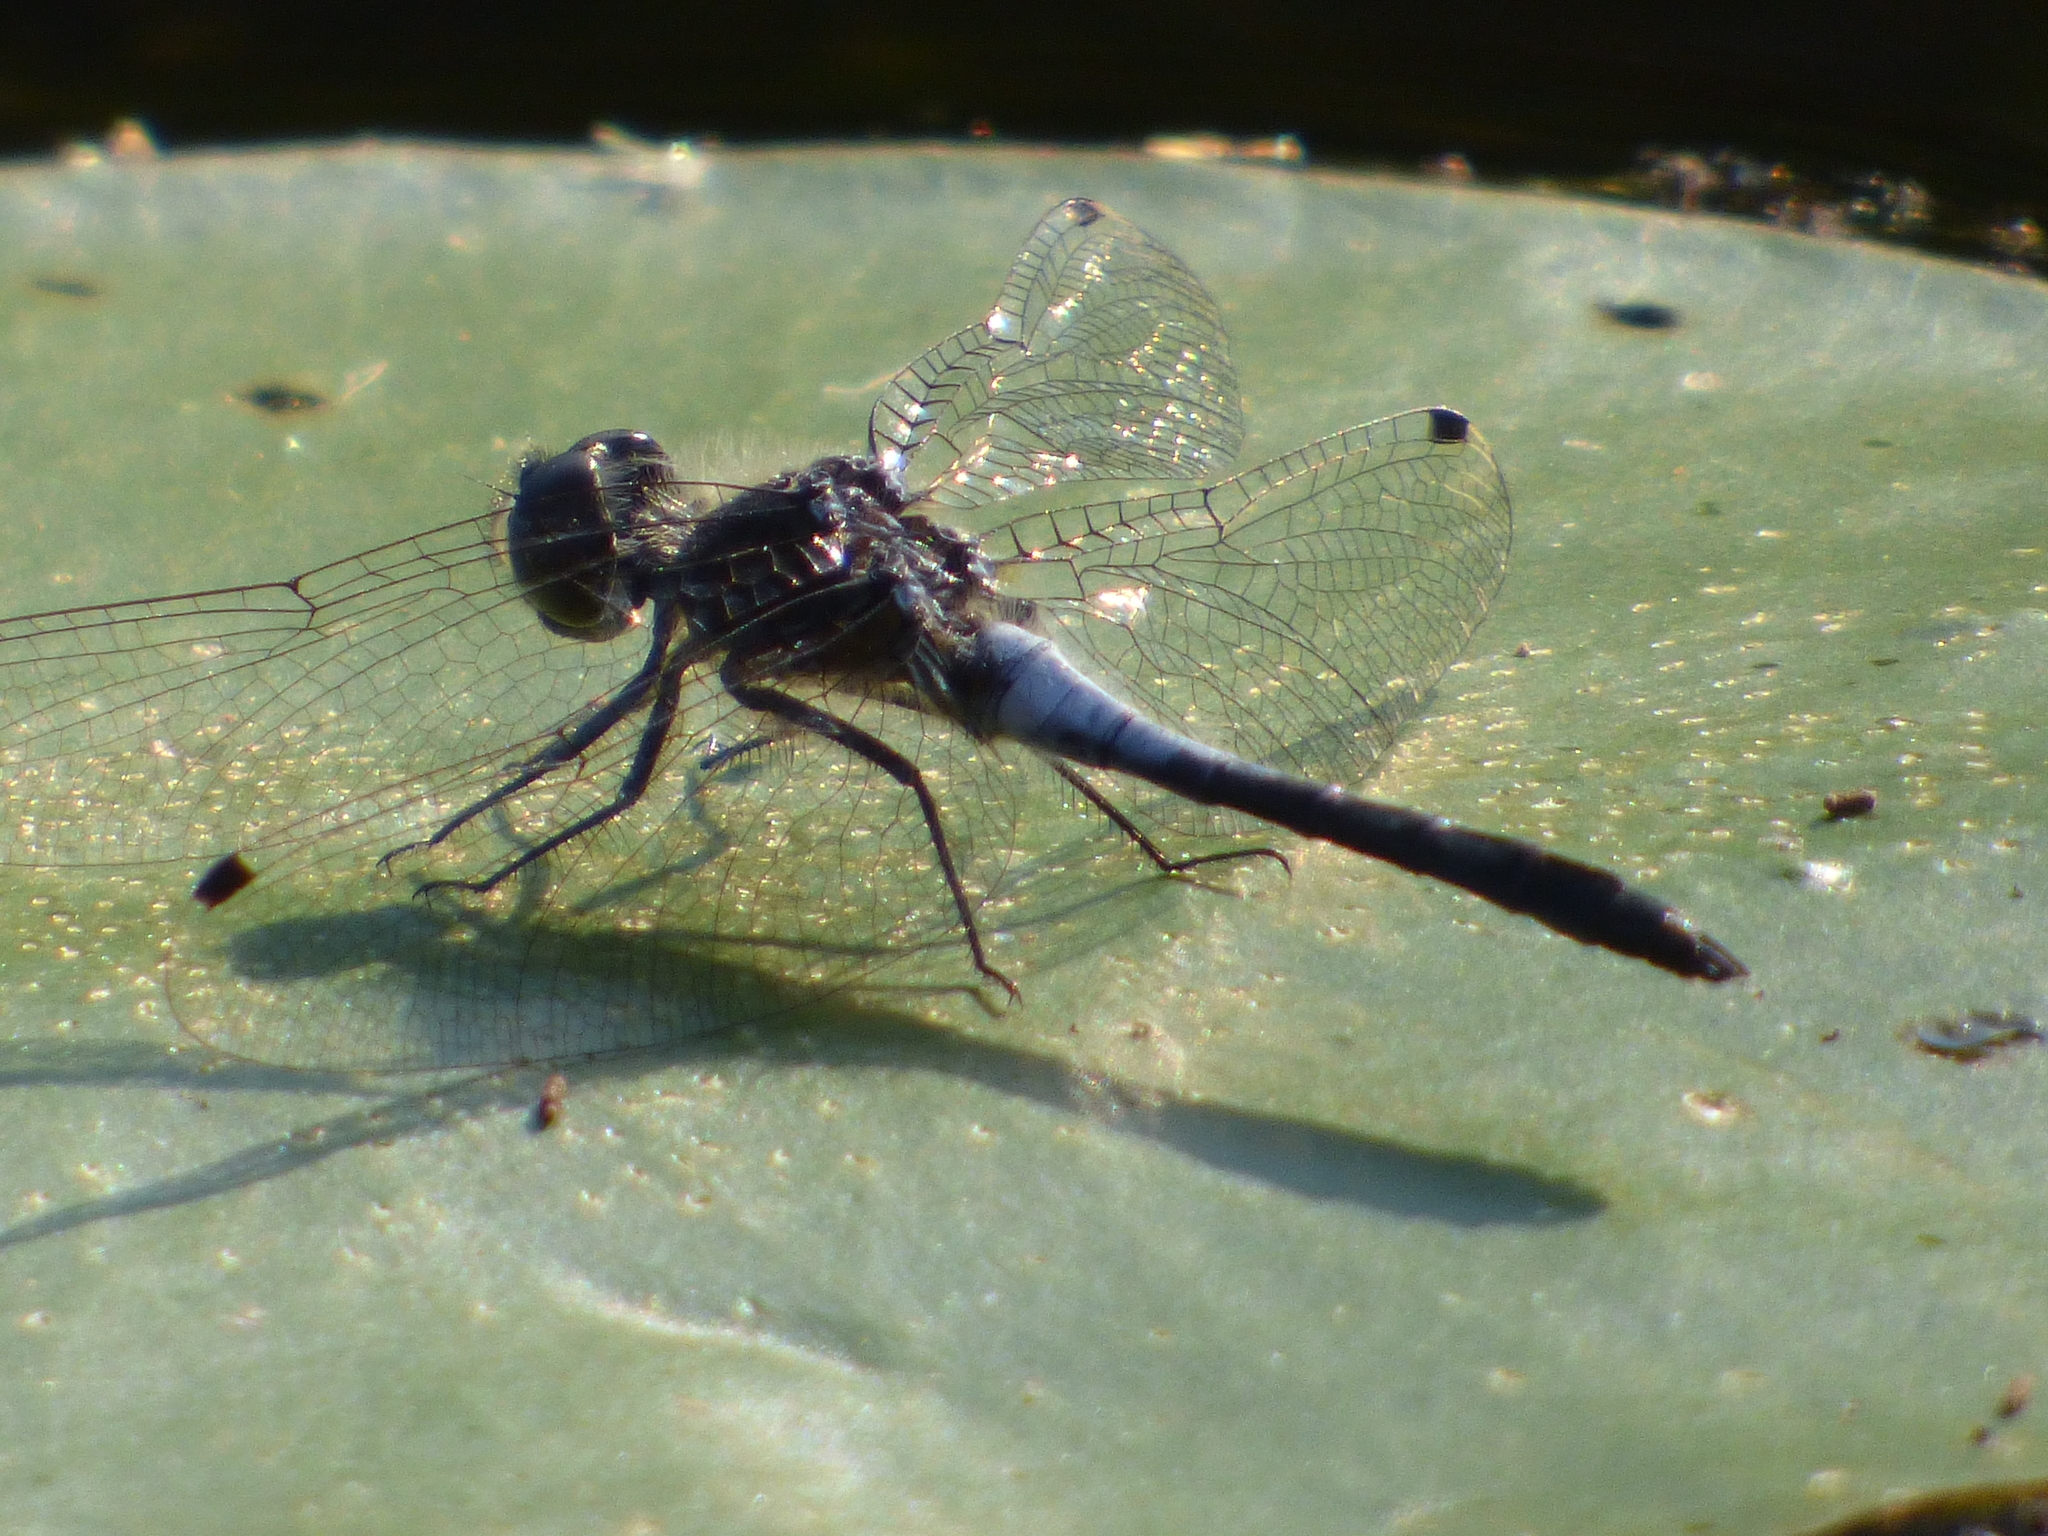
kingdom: Animalia
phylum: Arthropoda
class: Insecta
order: Odonata
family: Libellulidae
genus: Leucorrhinia
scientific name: Leucorrhinia frigida
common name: Frosted whiteface
